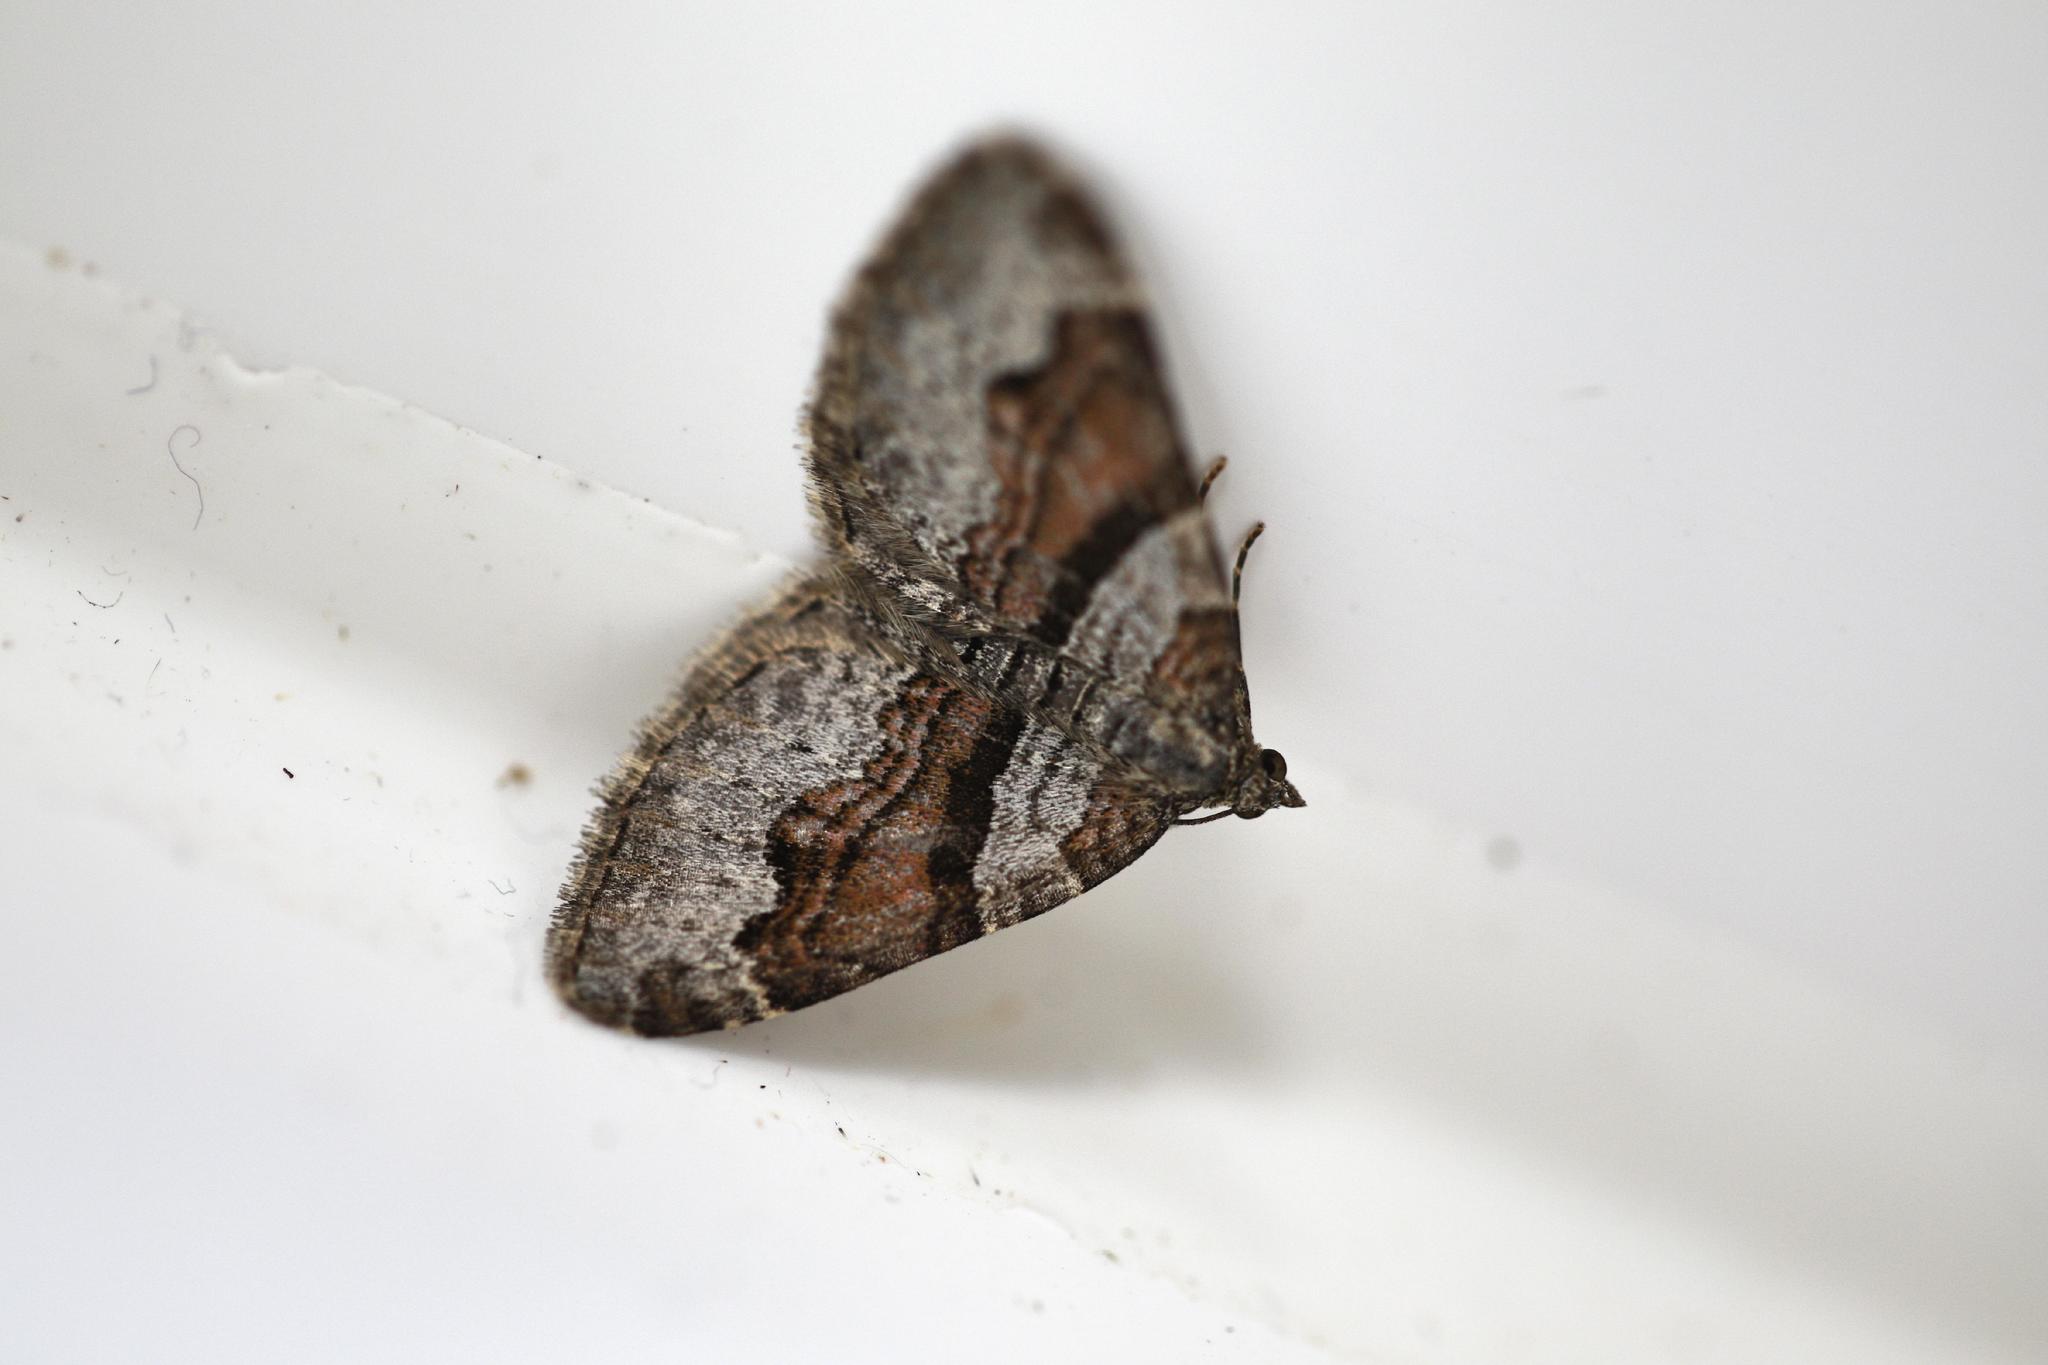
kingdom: Animalia
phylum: Arthropoda
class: Insecta
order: Lepidoptera
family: Geometridae
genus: Xanthorhoe
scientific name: Xanthorhoe designata
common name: Flame carpet
